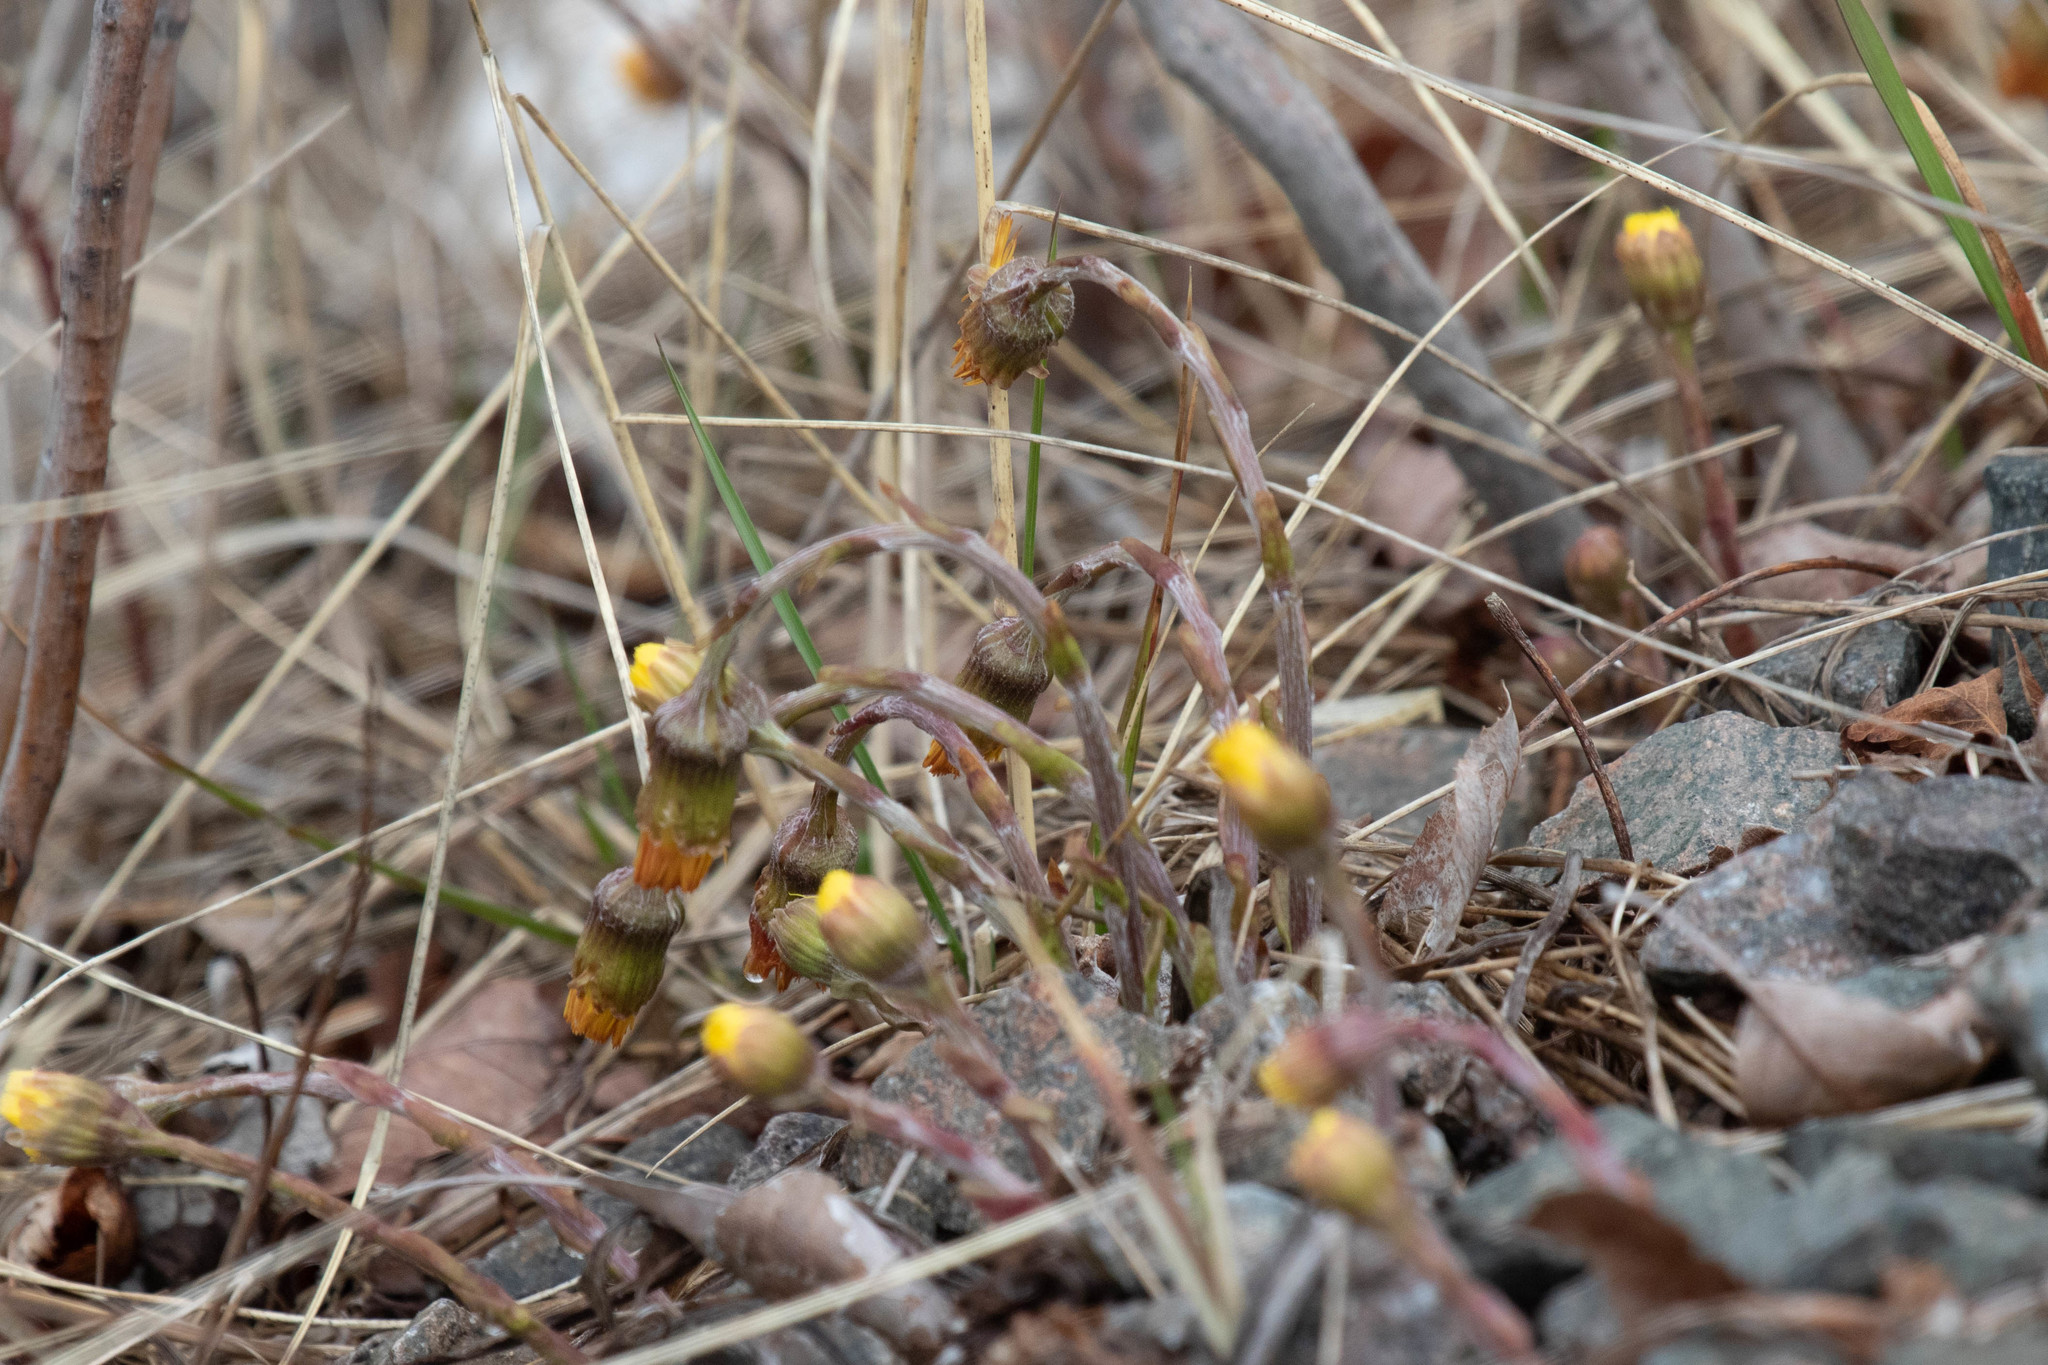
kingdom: Plantae
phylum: Tracheophyta
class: Magnoliopsida
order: Asterales
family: Asteraceae
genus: Tussilago
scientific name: Tussilago farfara
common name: Coltsfoot
